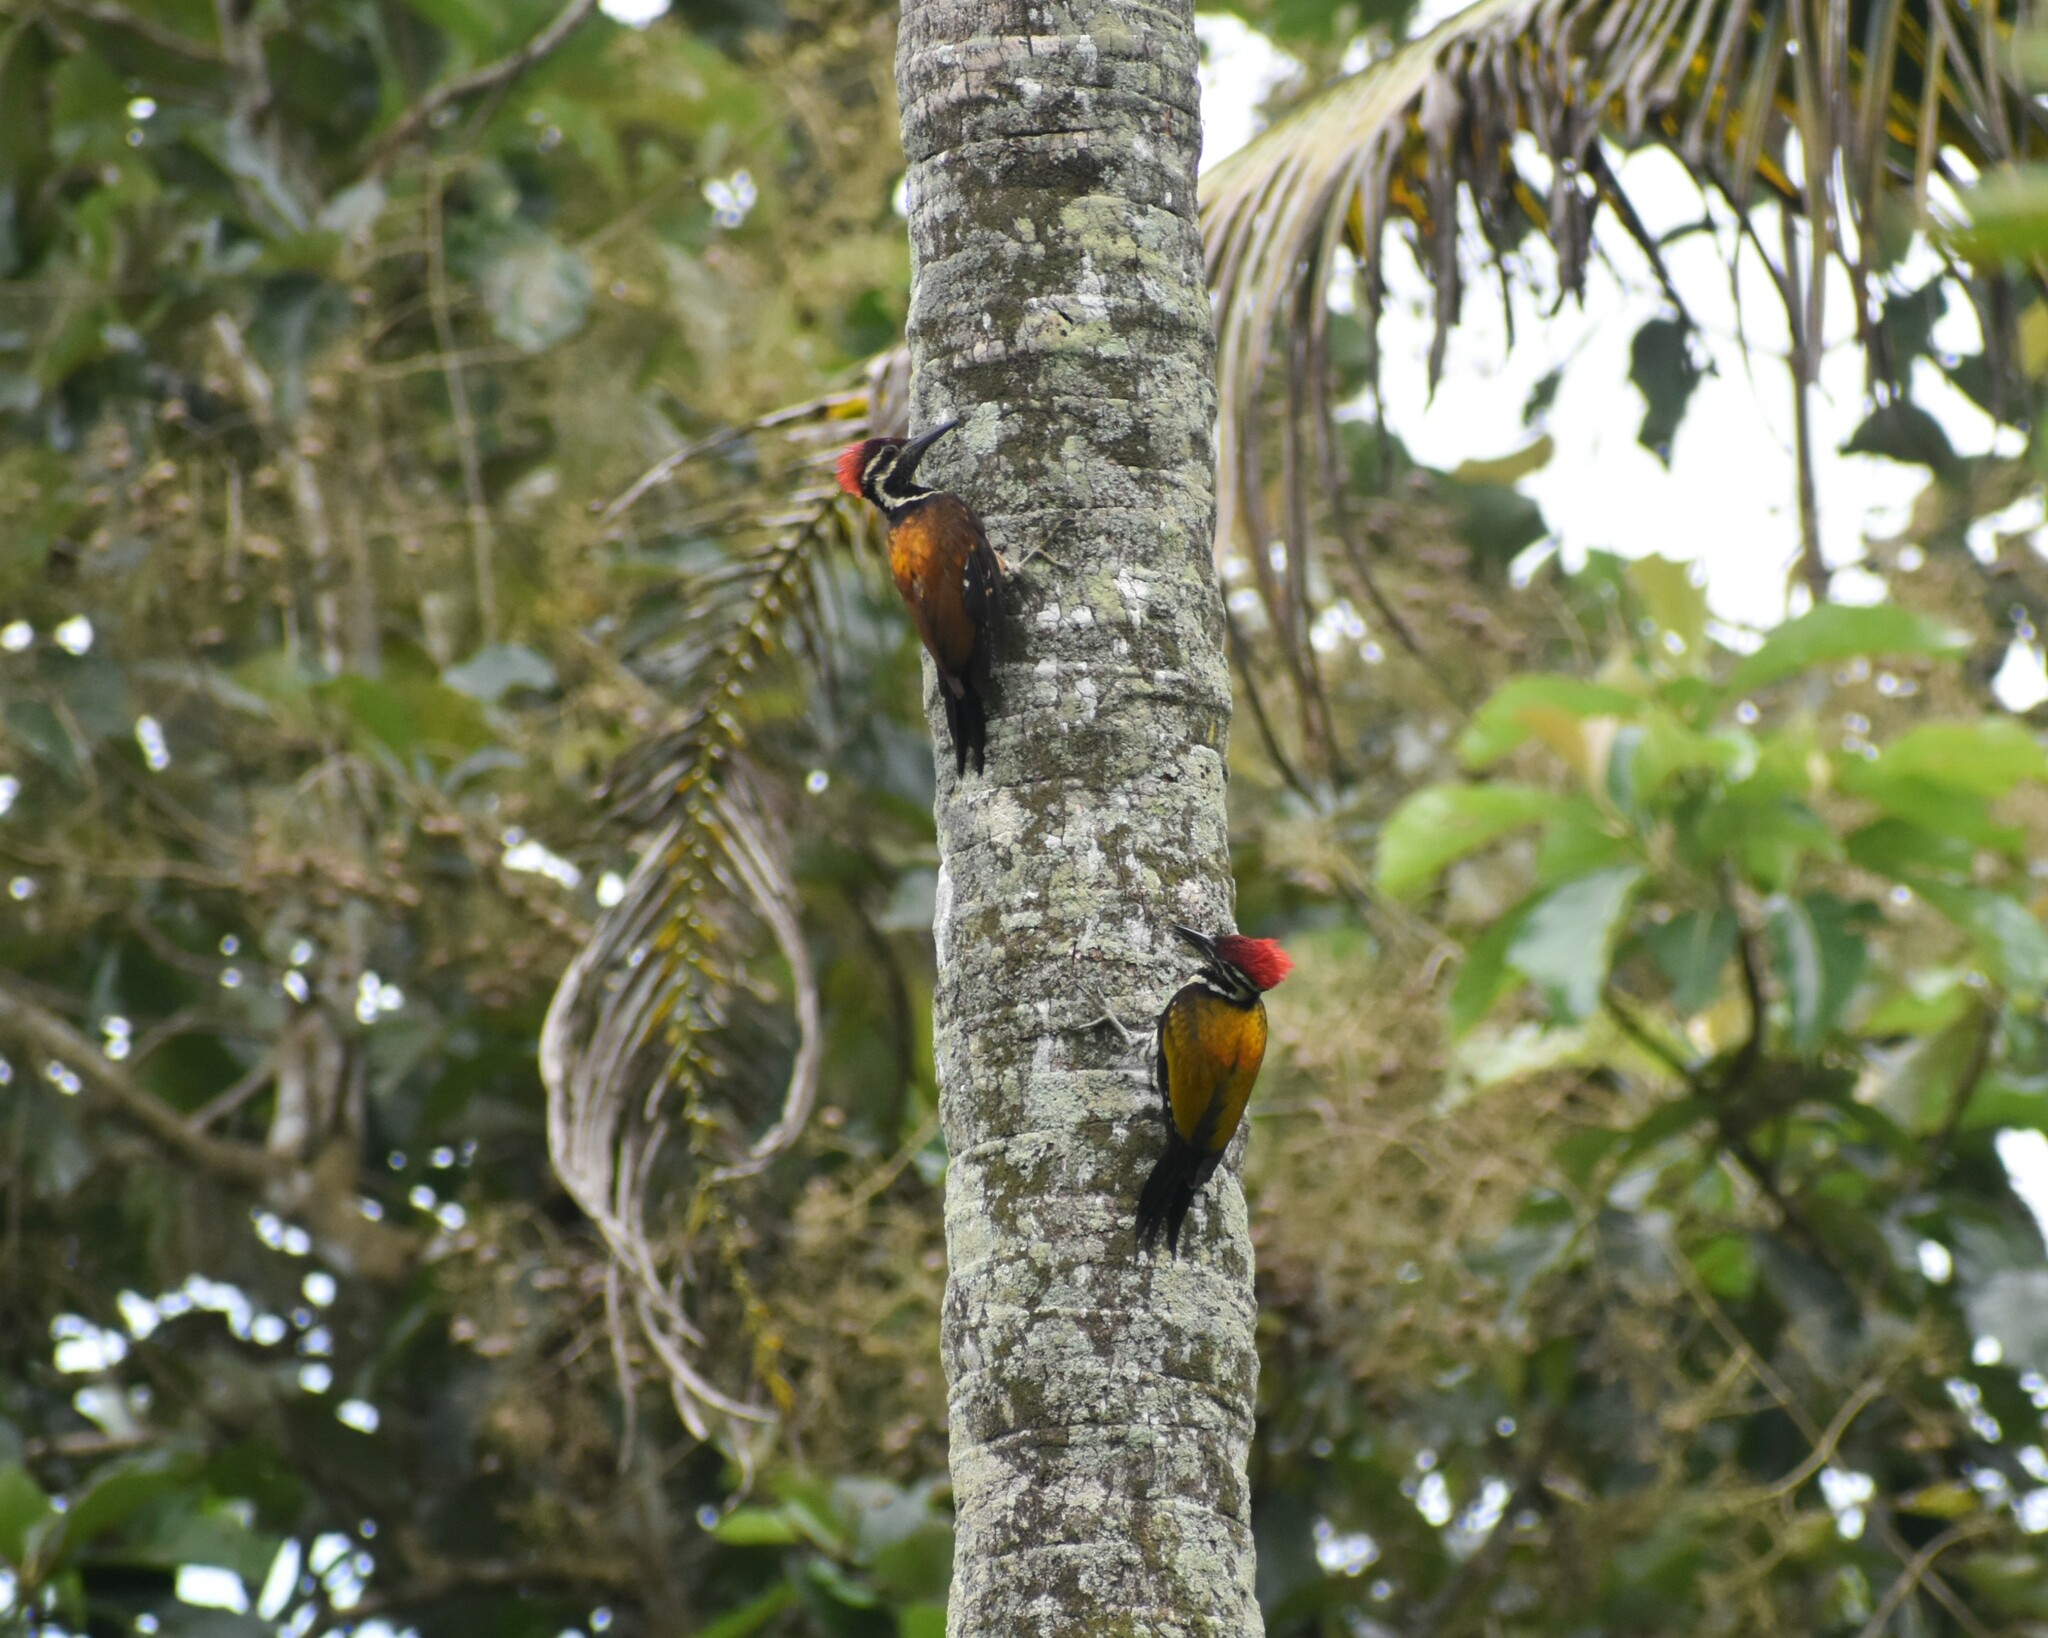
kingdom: Animalia
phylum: Chordata
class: Aves
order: Piciformes
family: Picidae
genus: Dinopium
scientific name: Dinopium benghalense
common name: Black-rumped flameback
